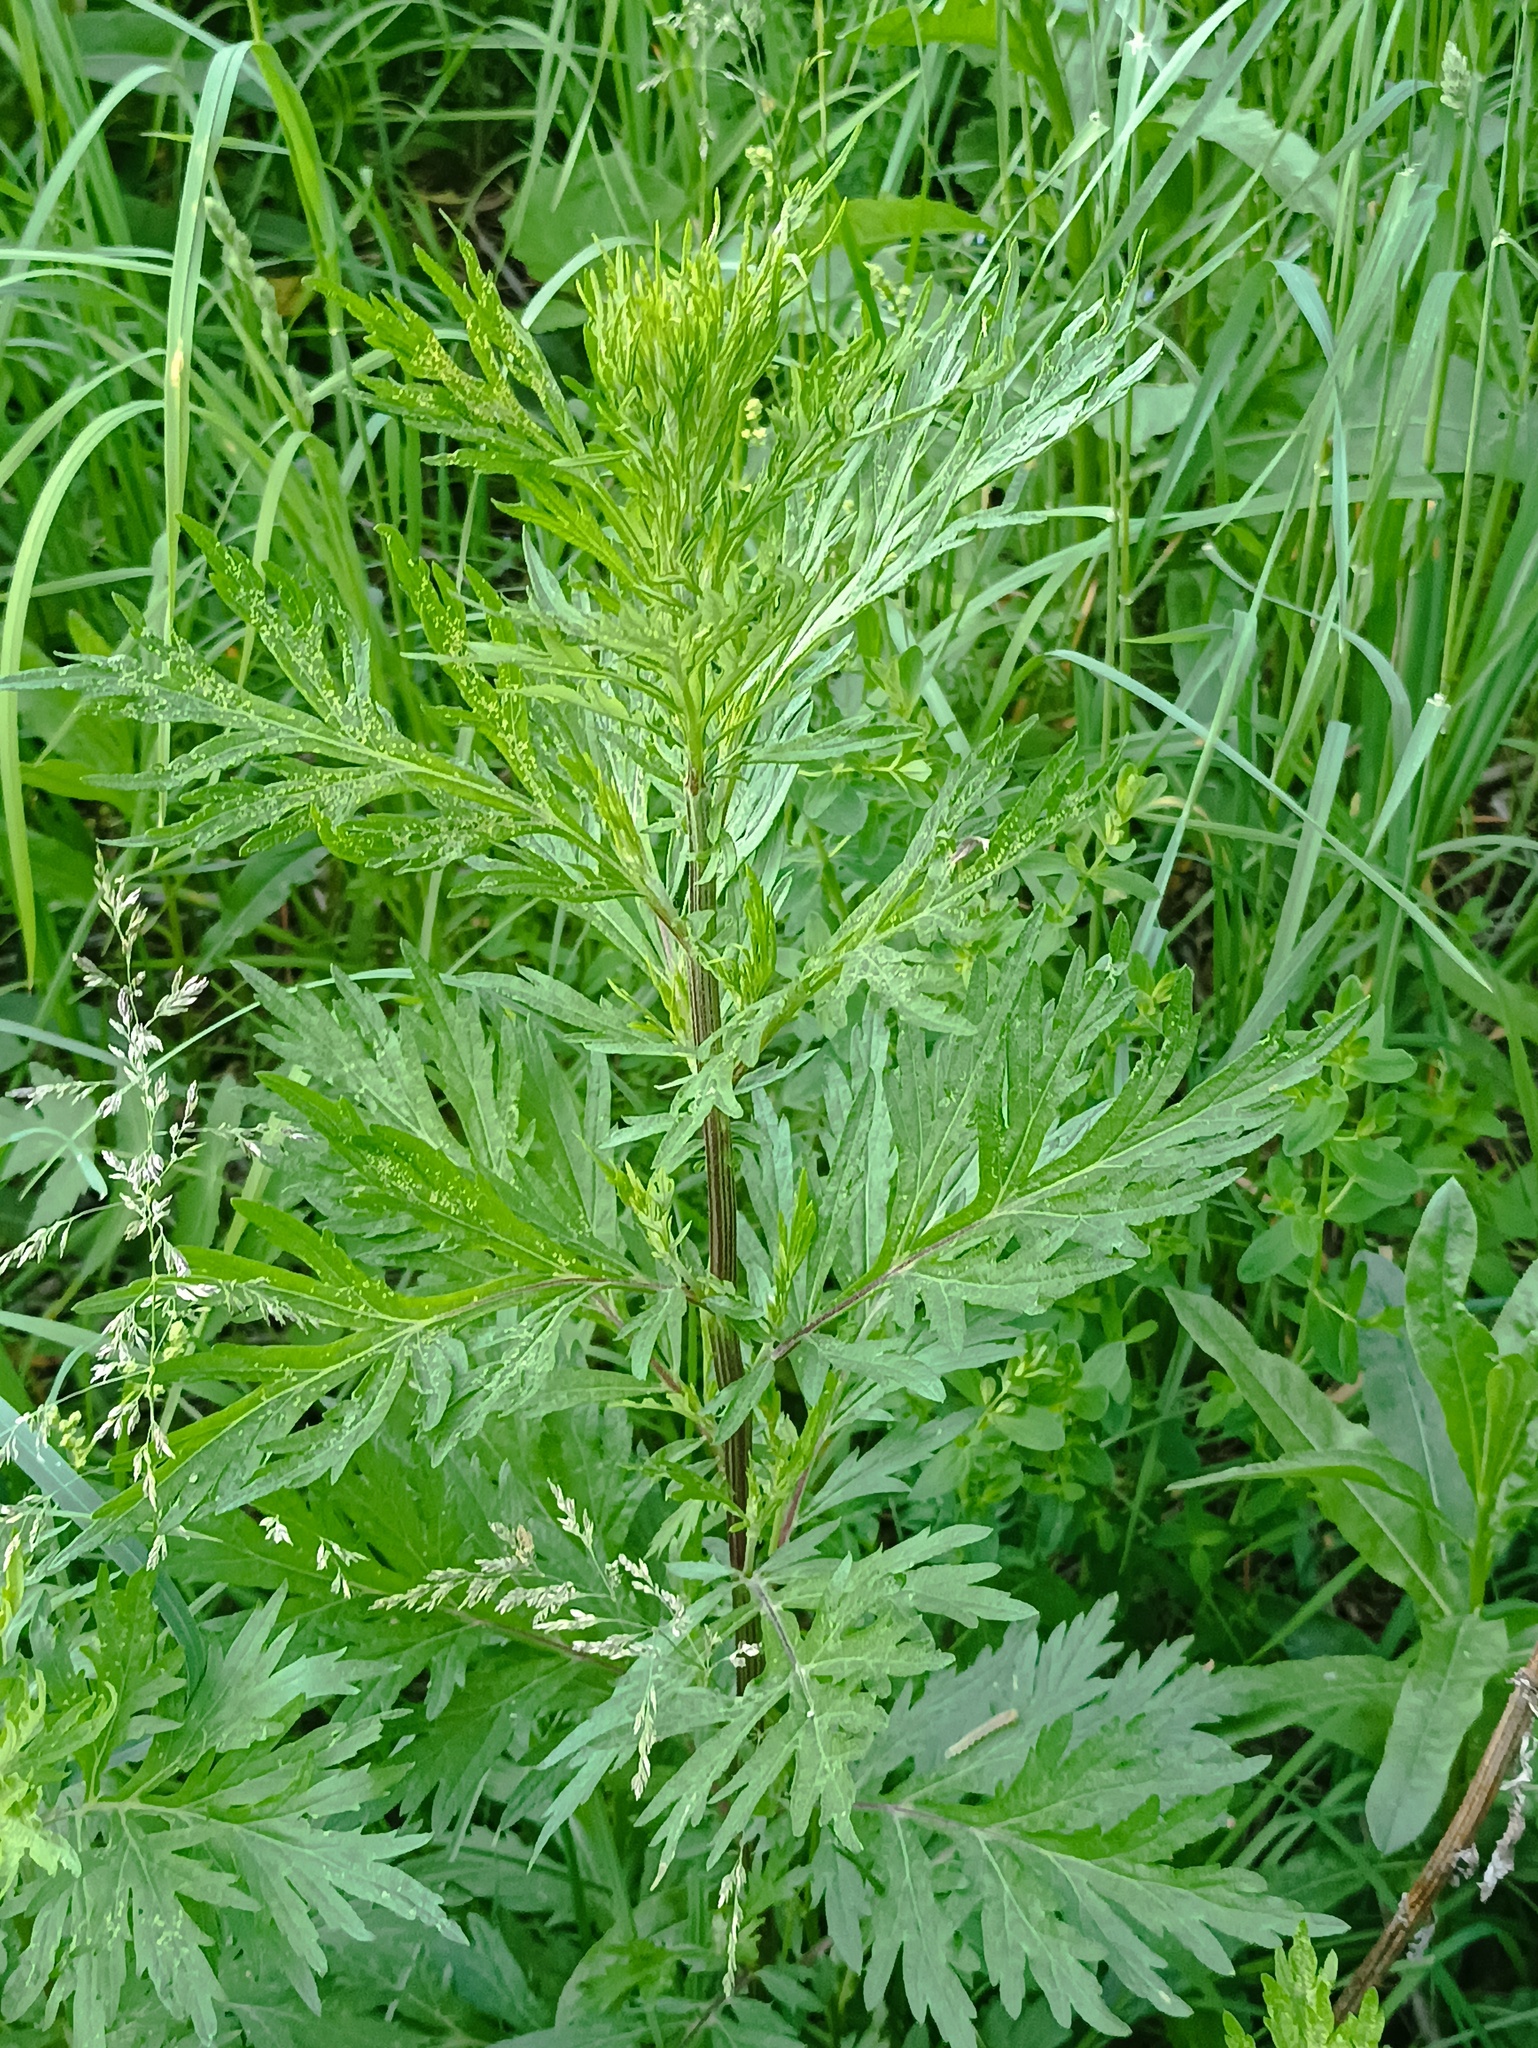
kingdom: Plantae
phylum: Tracheophyta
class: Magnoliopsida
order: Asterales
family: Asteraceae
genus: Artemisia
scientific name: Artemisia vulgaris
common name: Mugwort
